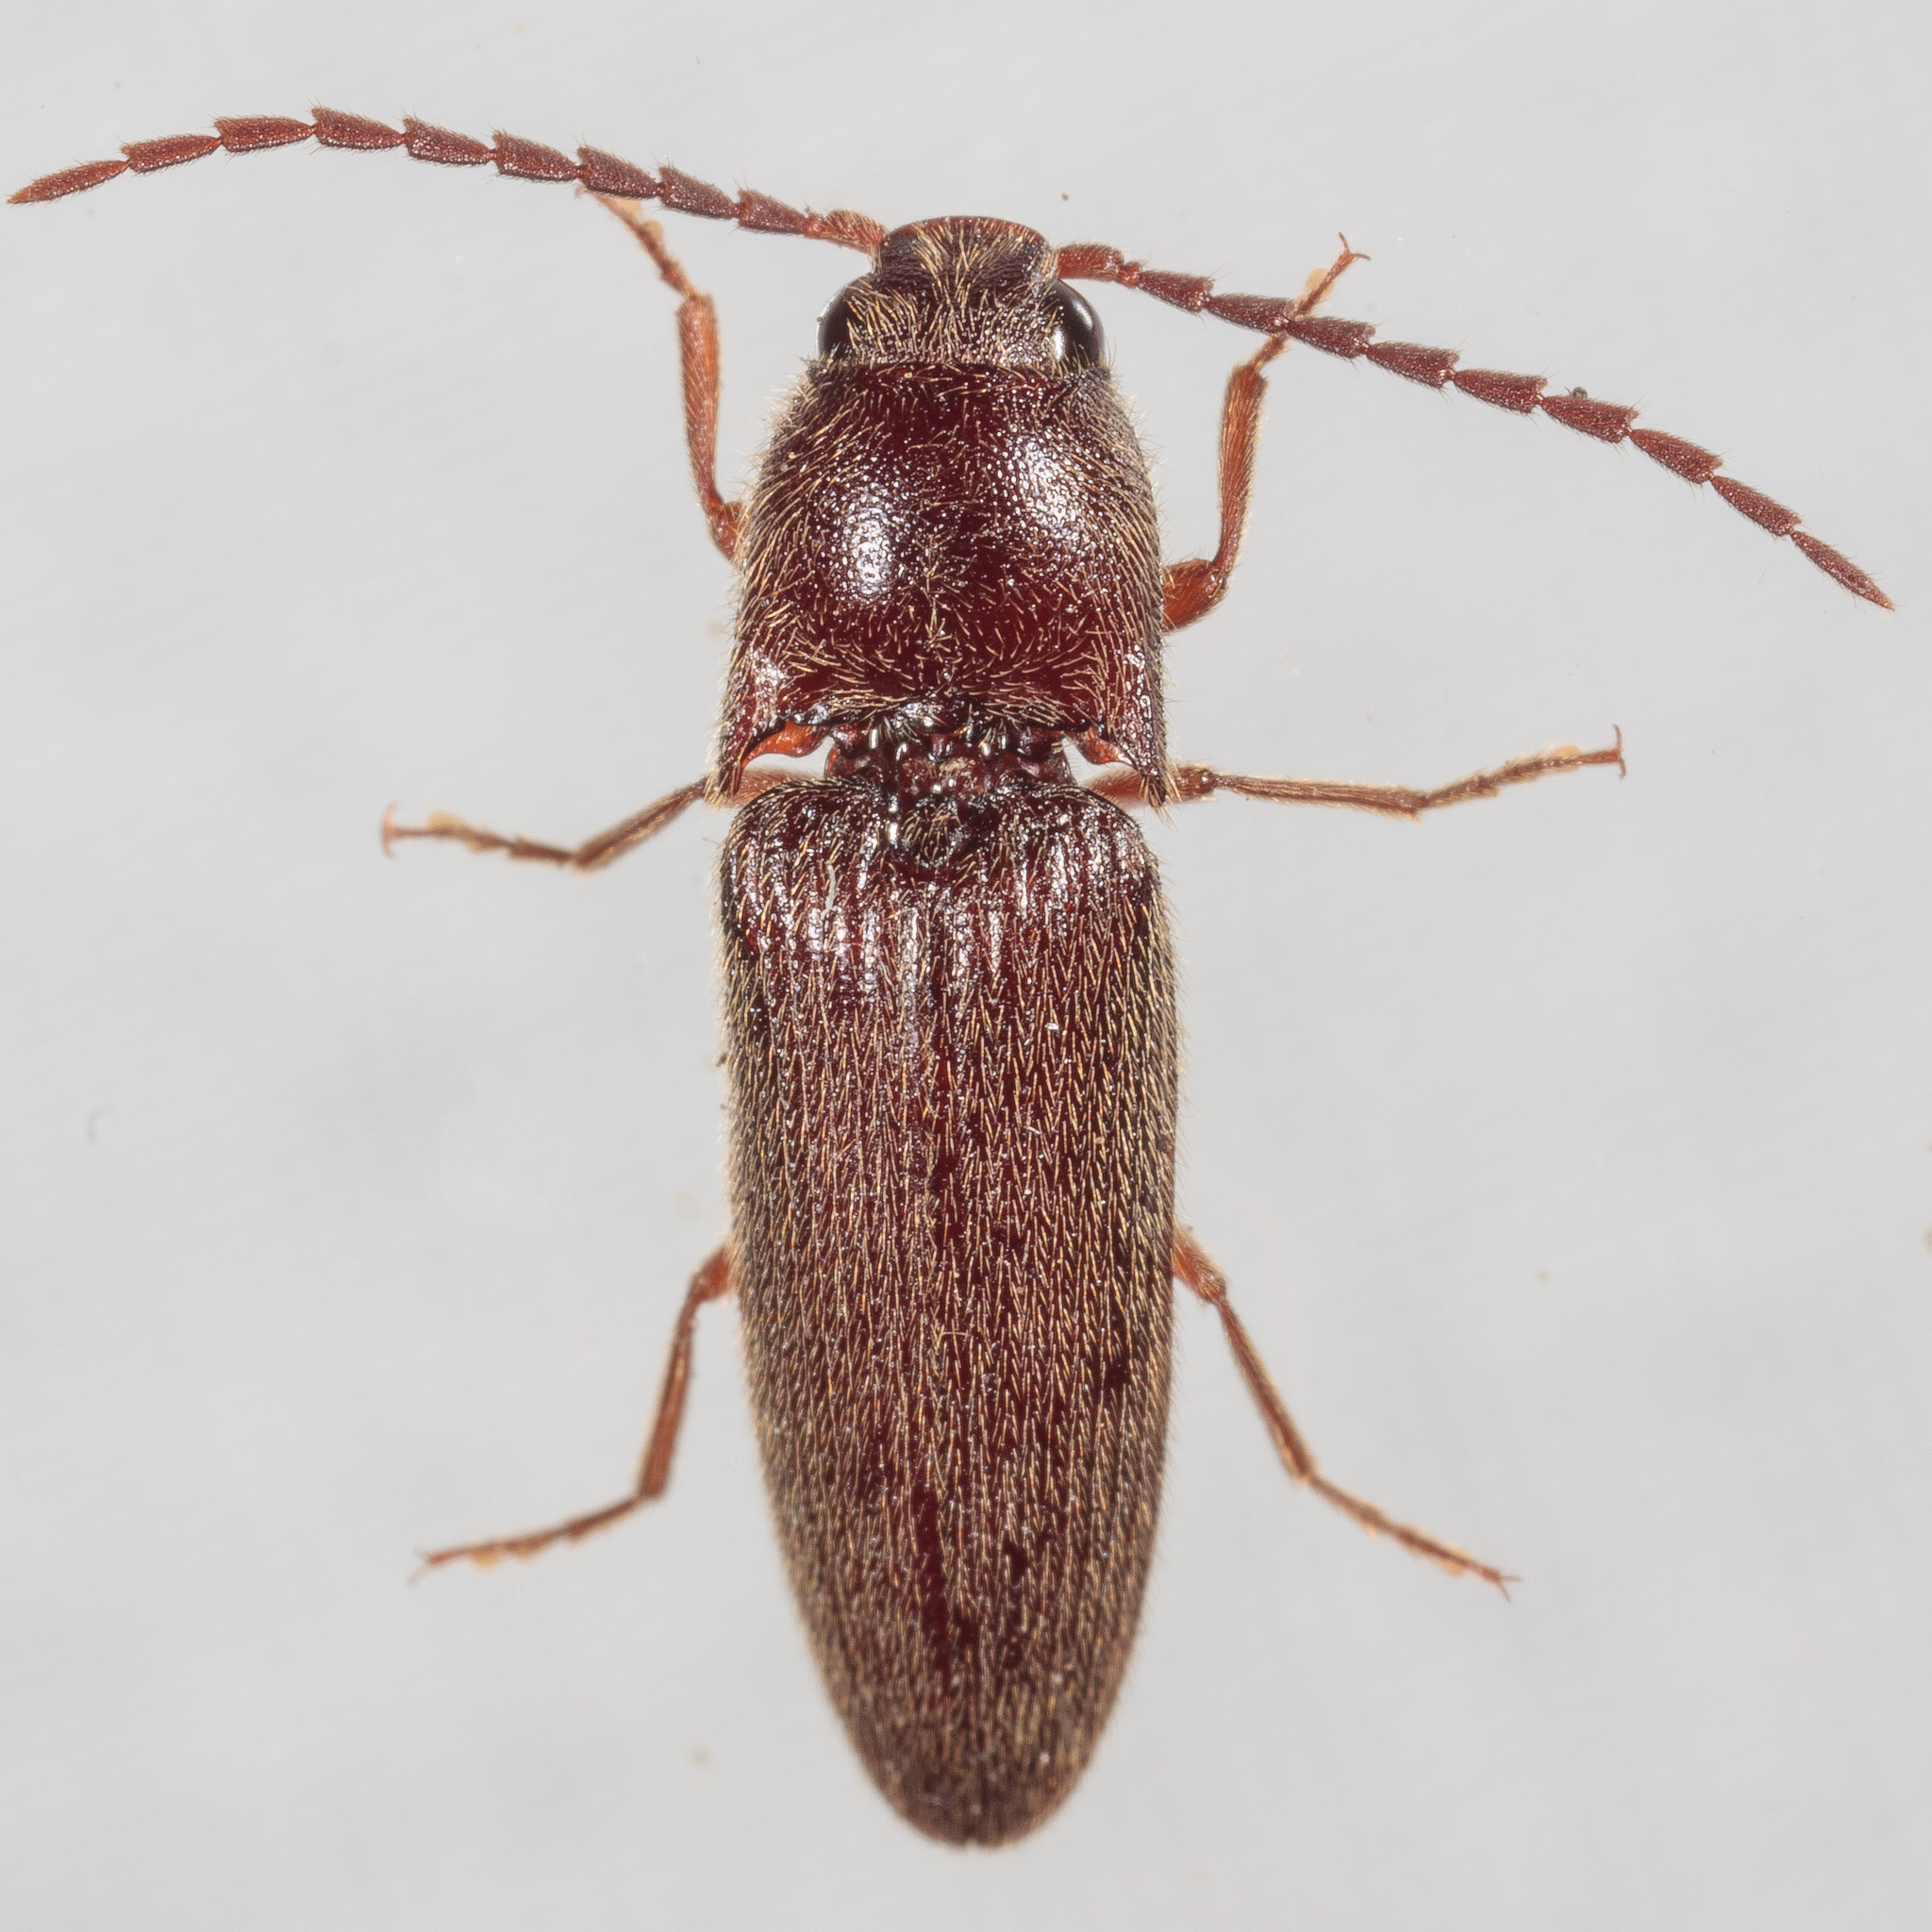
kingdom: Animalia
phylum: Arthropoda
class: Insecta
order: Coleoptera
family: Elateridae
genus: Dipropus
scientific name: Dipropus
